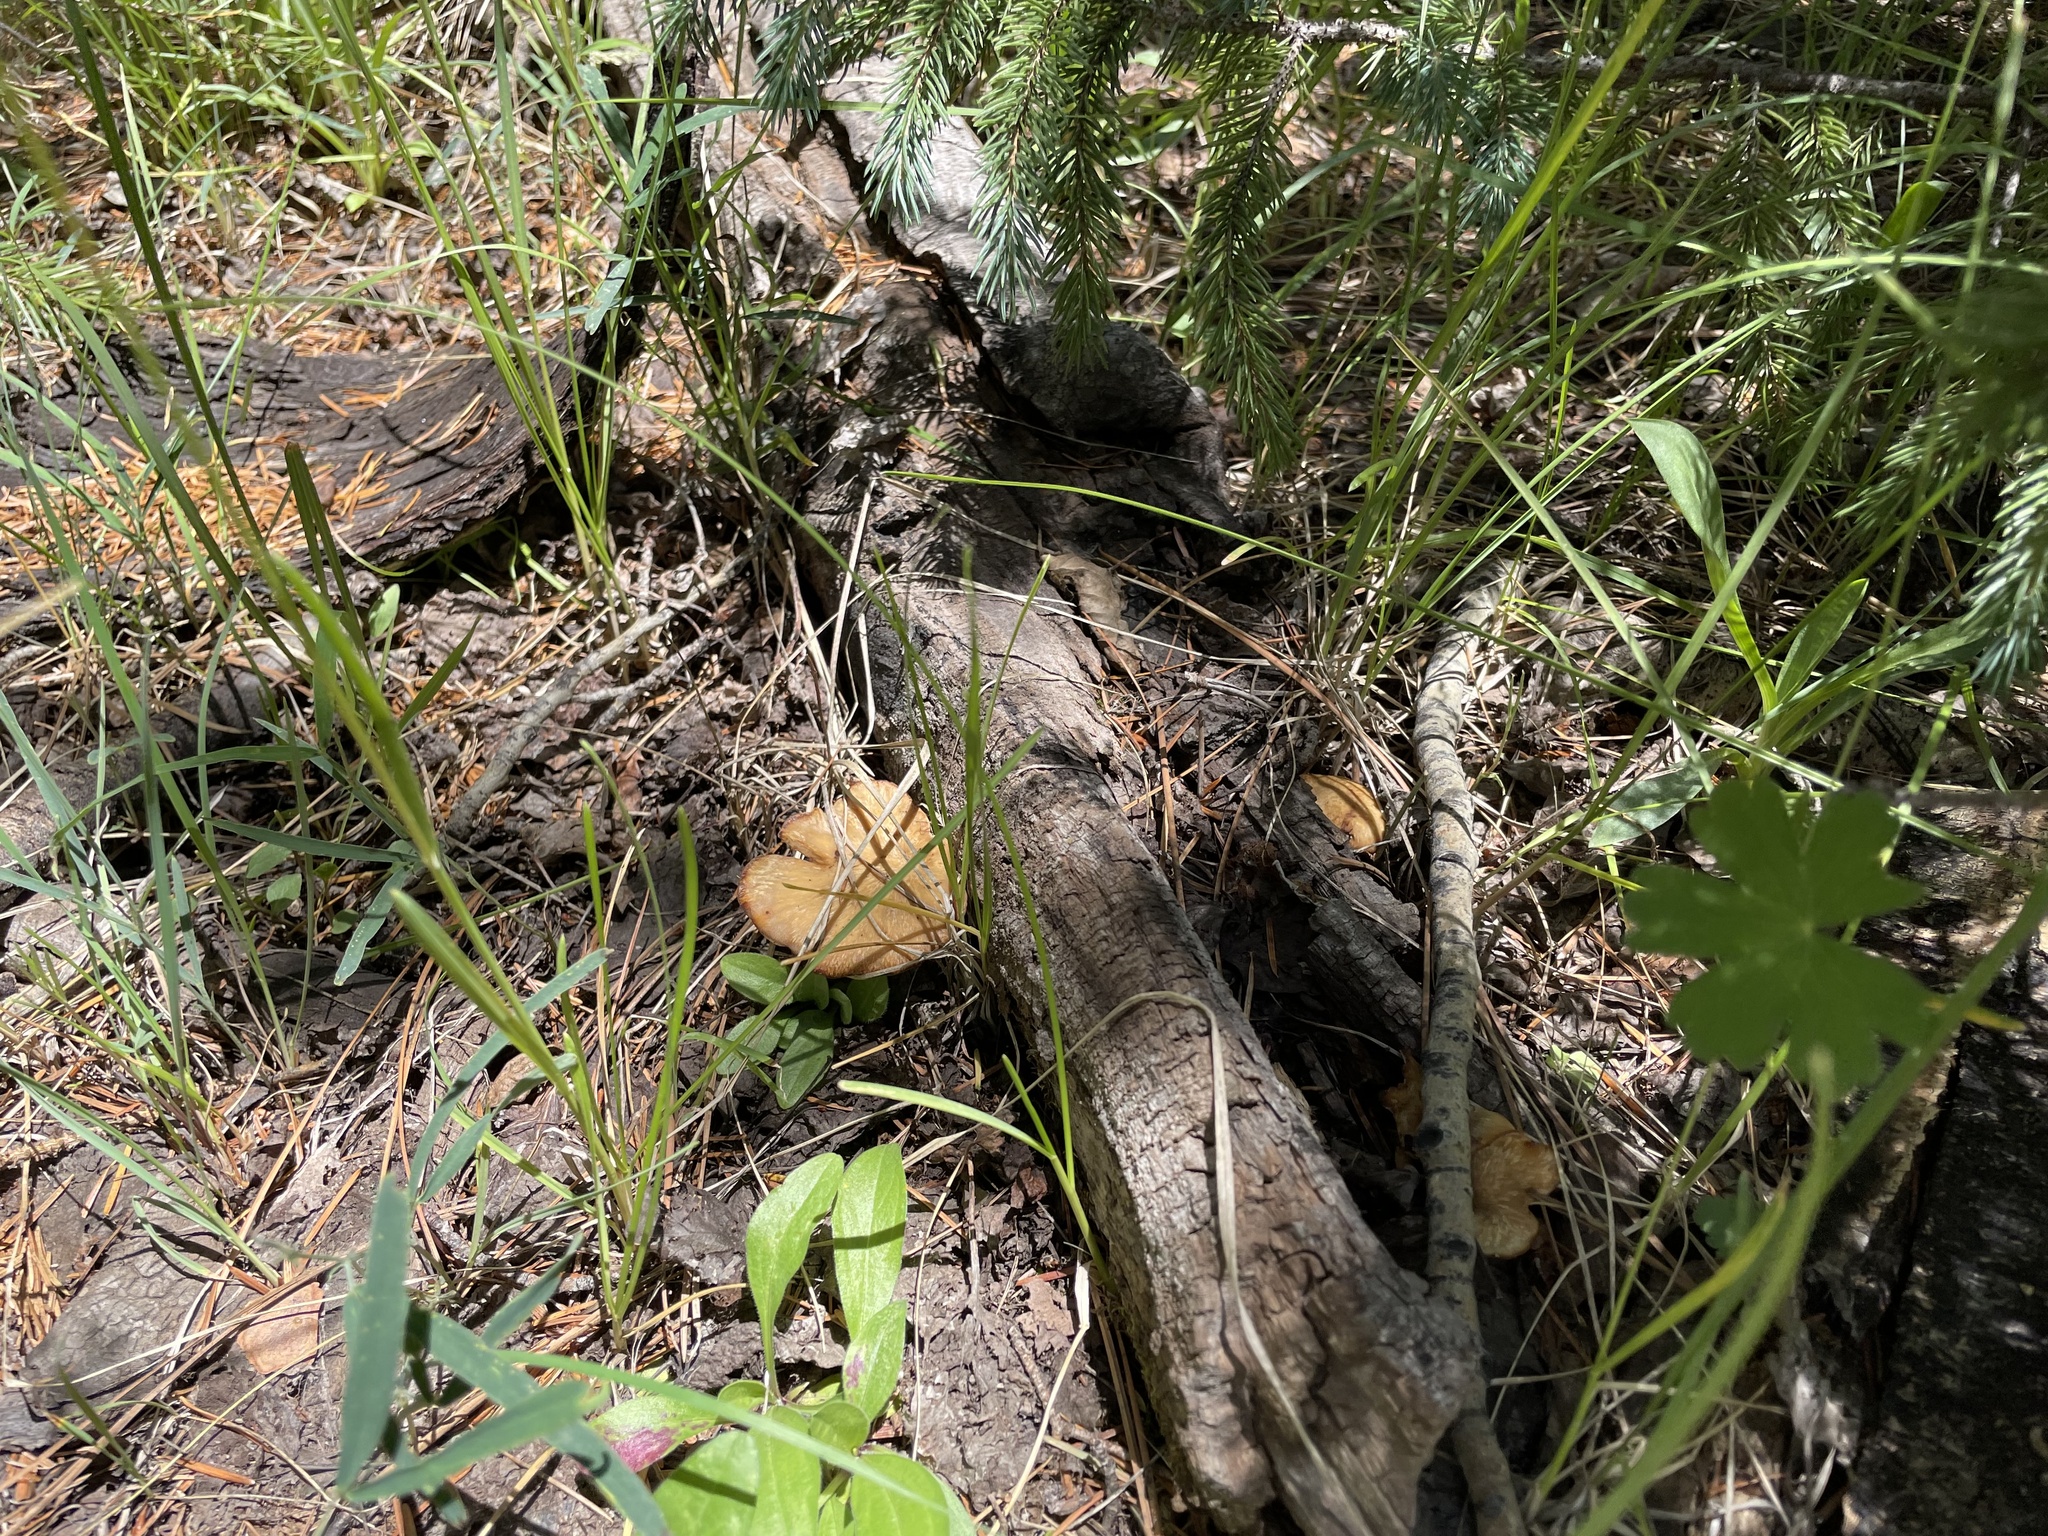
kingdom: Fungi
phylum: Basidiomycota
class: Agaricomycetes
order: Polyporales
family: Polyporaceae
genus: Cerioporus
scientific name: Cerioporus varius
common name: Elegant polypore
